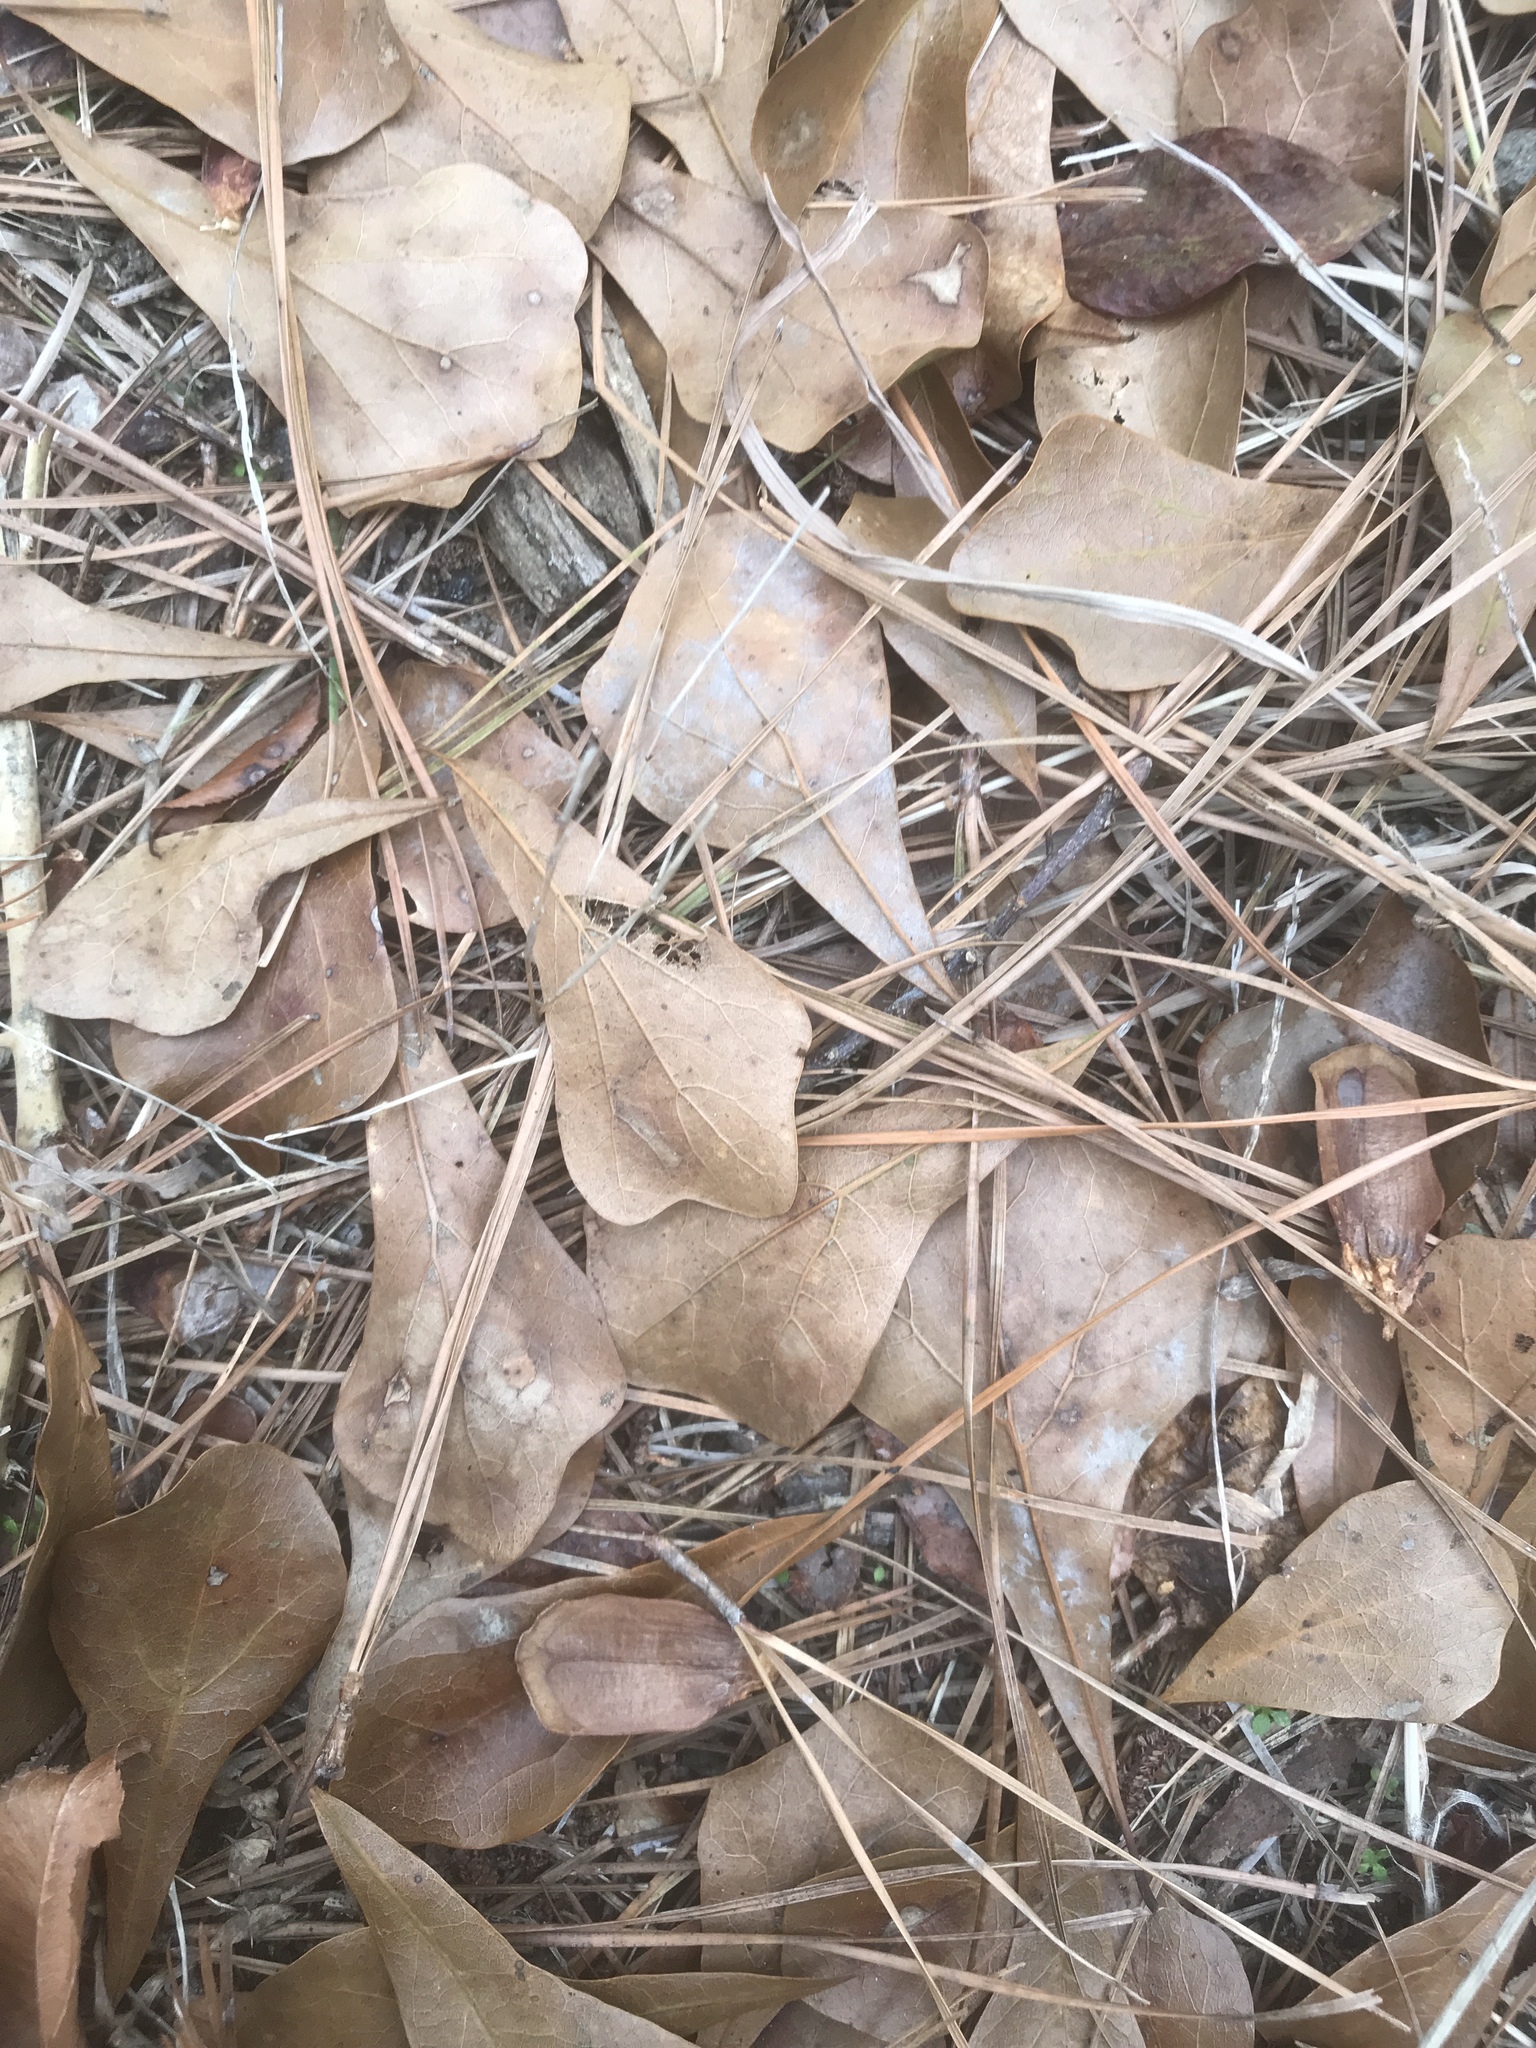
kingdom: Plantae
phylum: Tracheophyta
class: Magnoliopsida
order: Fagales
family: Fagaceae
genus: Quercus
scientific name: Quercus nigra
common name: Water oak
